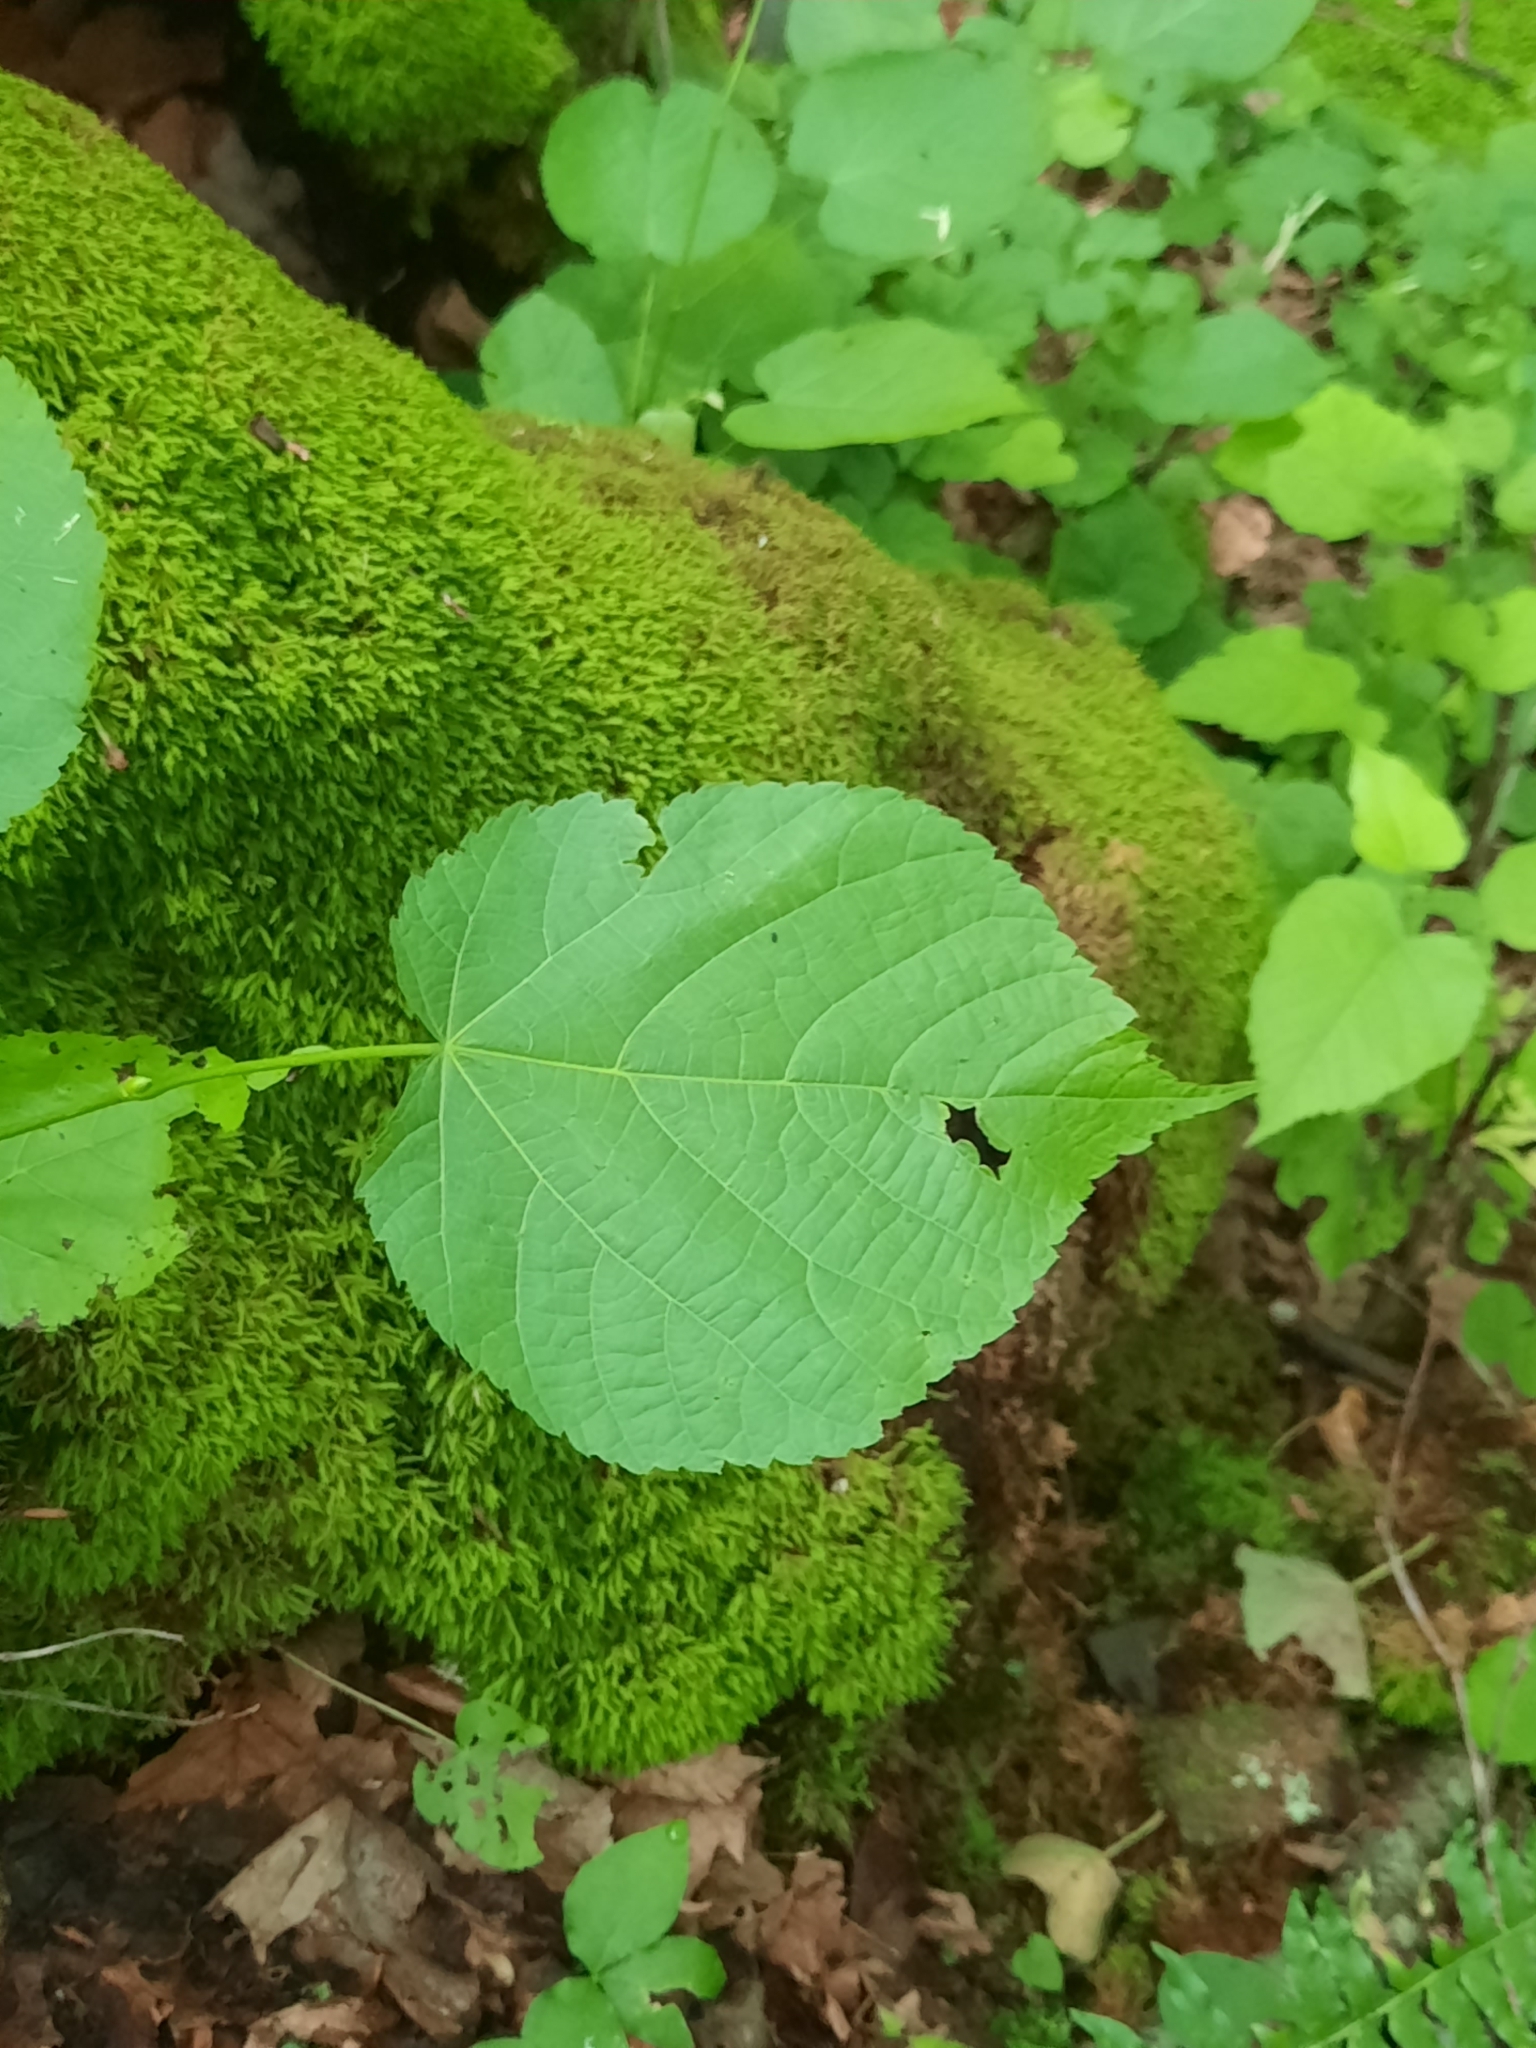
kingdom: Plantae
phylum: Tracheophyta
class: Magnoliopsida
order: Malvales
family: Malvaceae
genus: Tilia
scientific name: Tilia americana
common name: Basswood
